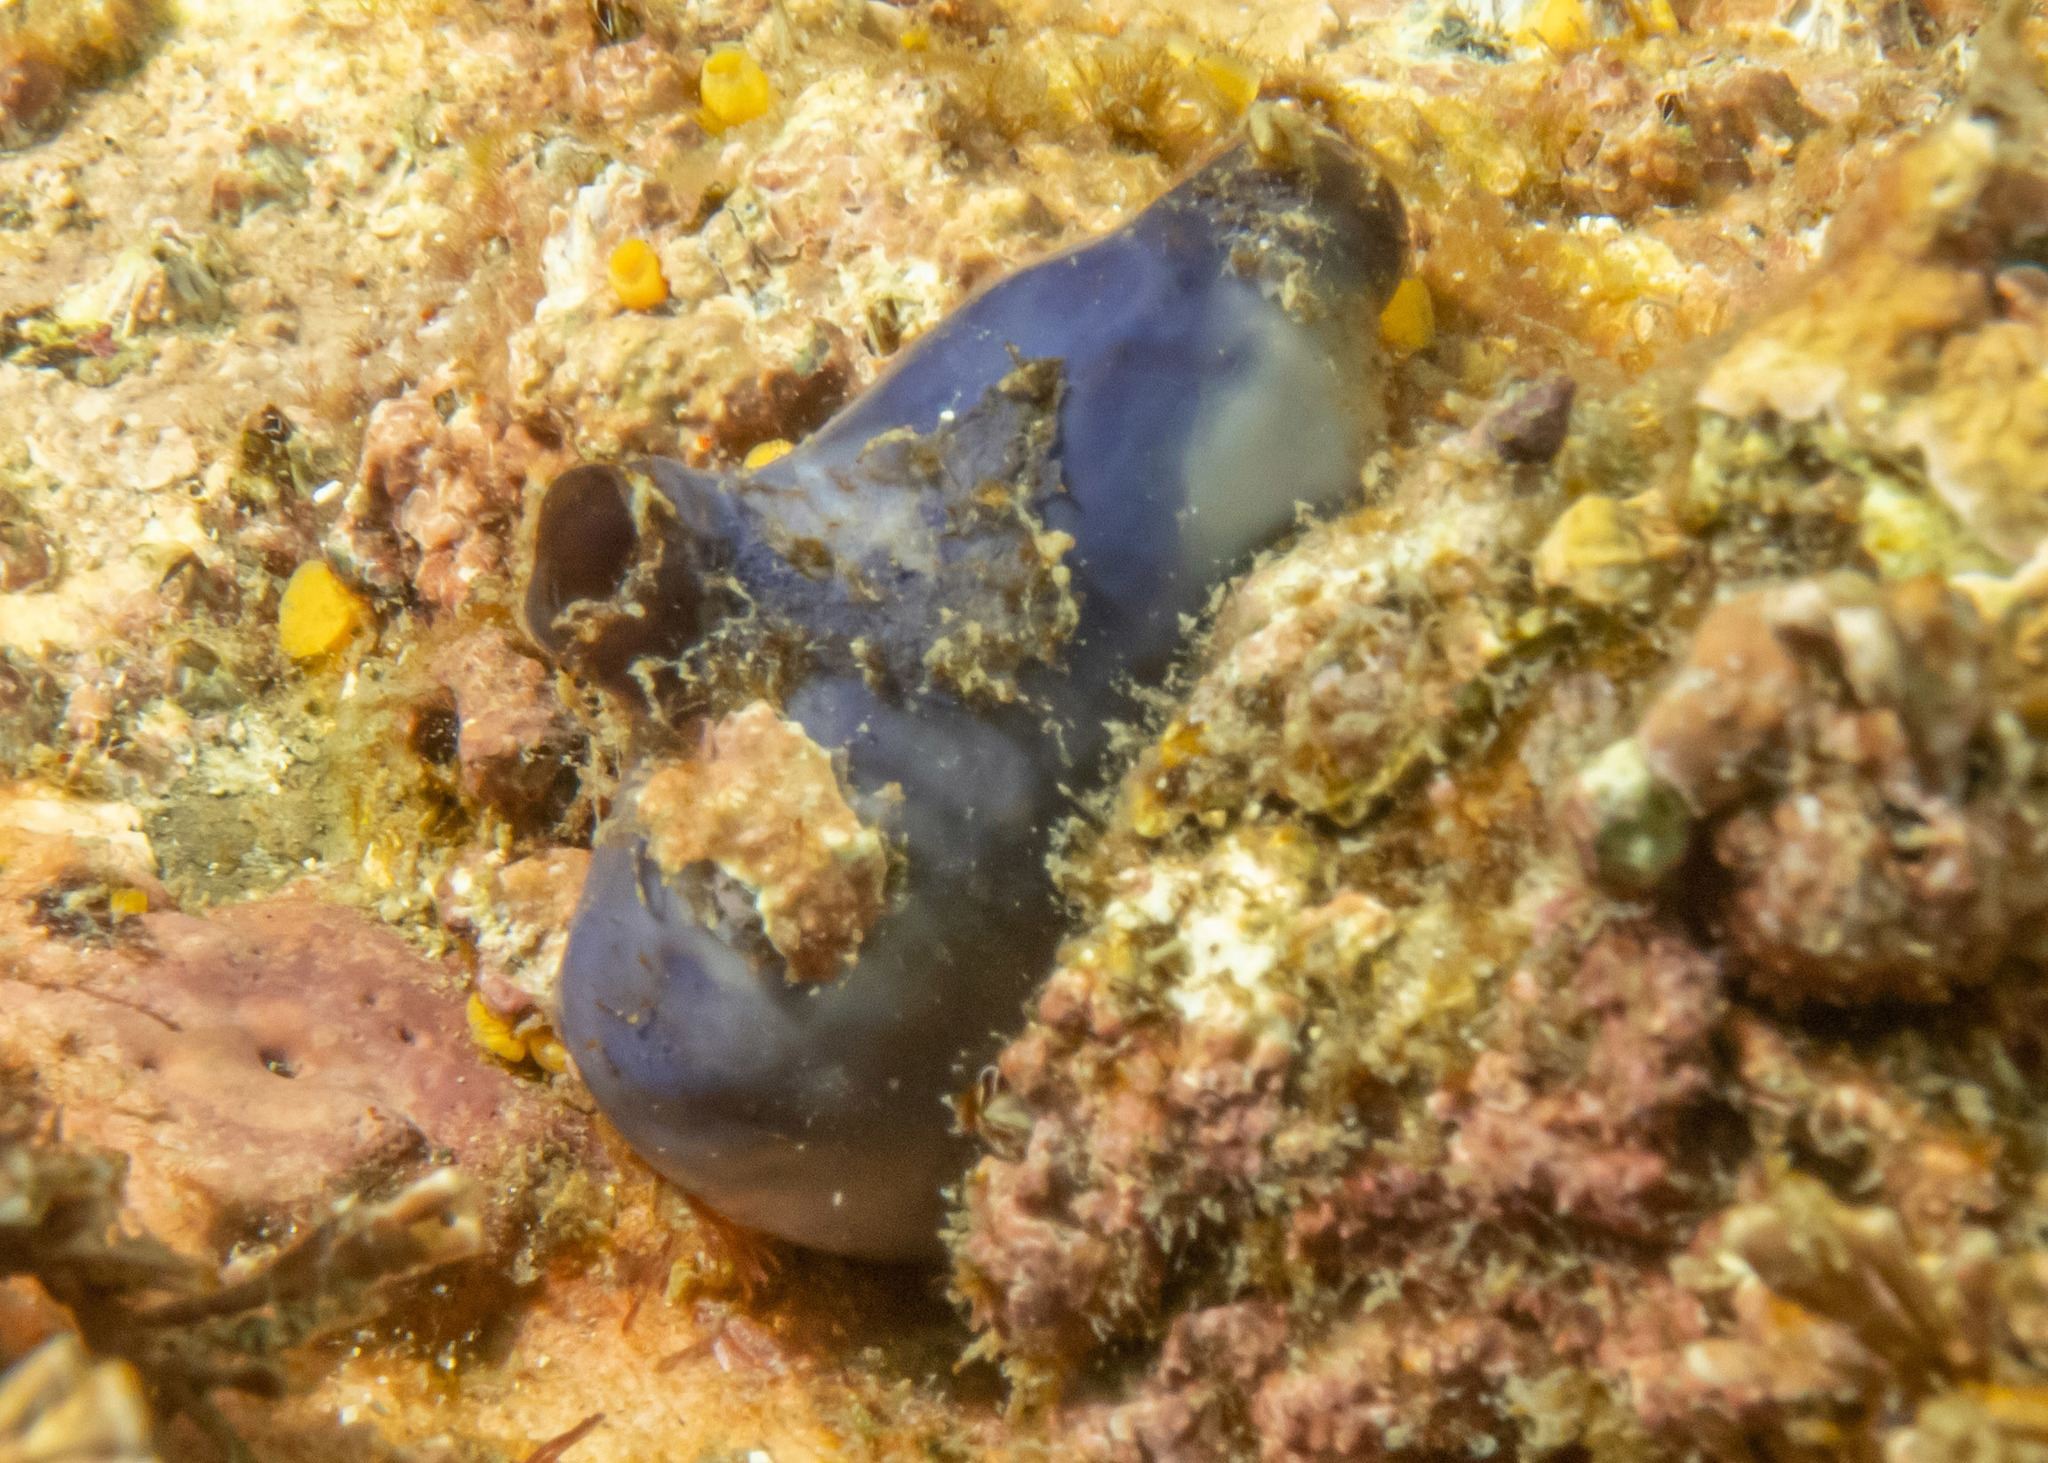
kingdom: Animalia
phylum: Chordata
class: Ascidiacea
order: Stolidobranchia
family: Styelidae
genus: Asterocarpa
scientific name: Asterocarpa coerulea
